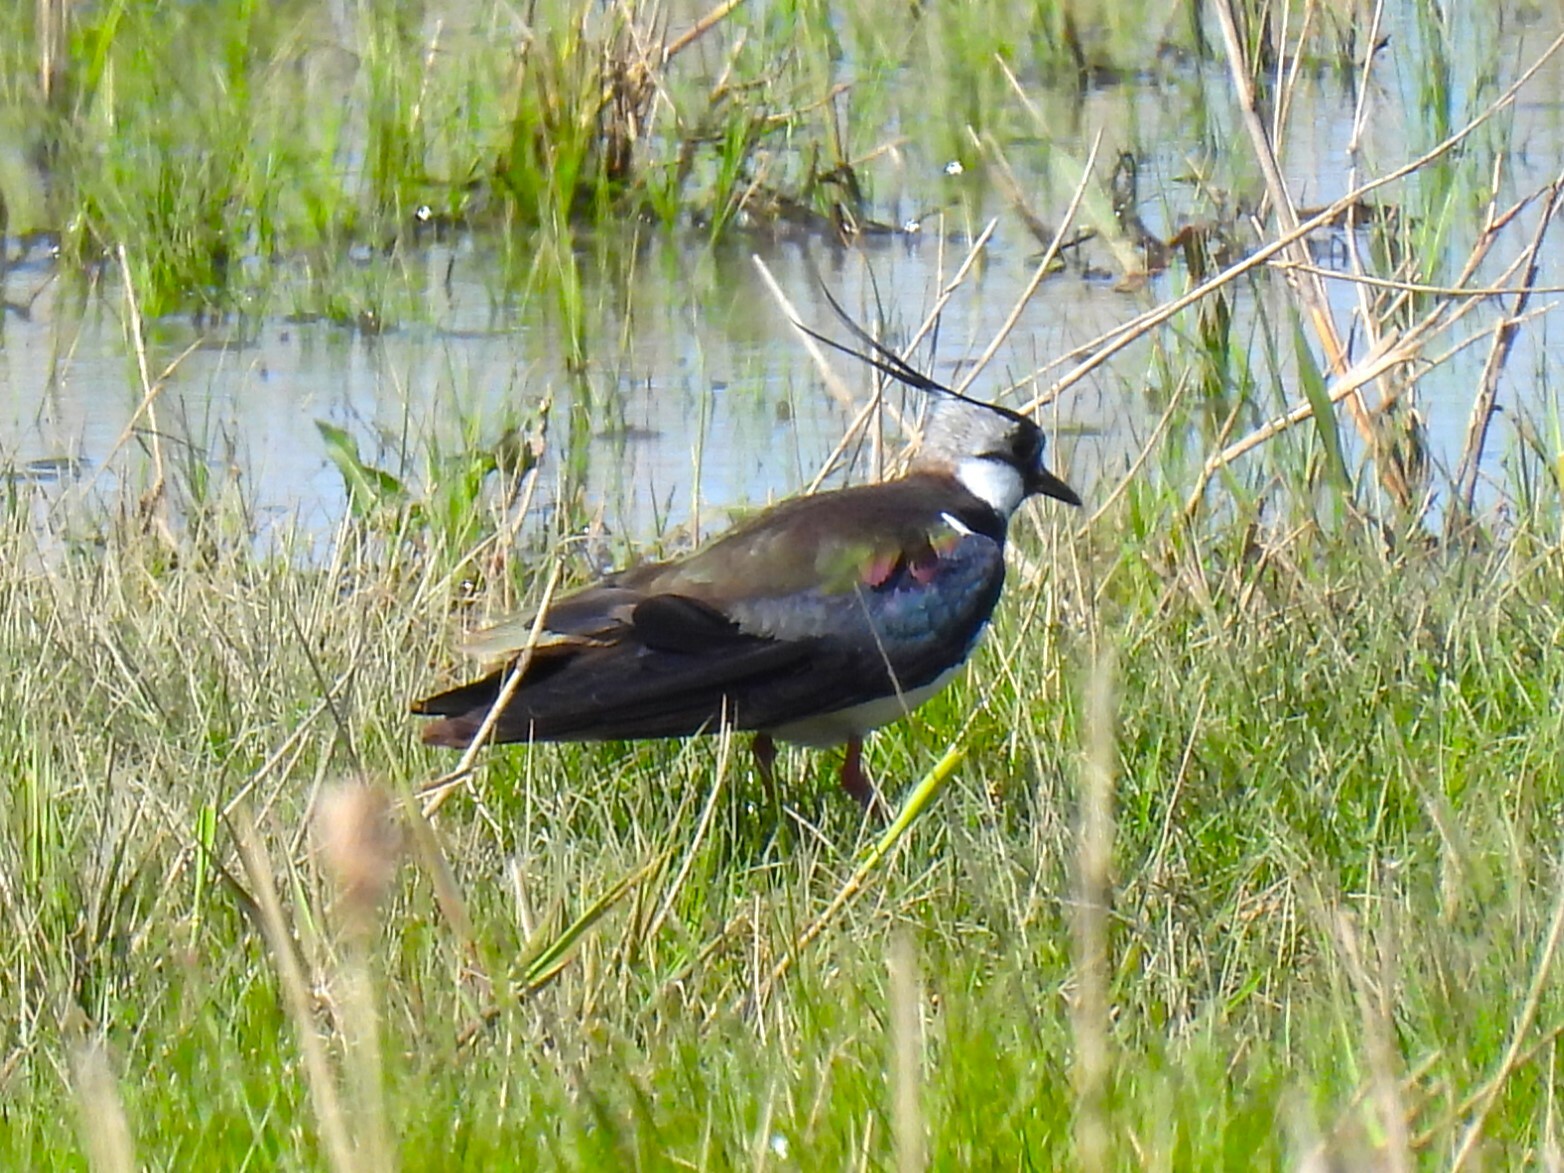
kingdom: Animalia
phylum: Chordata
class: Aves
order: Charadriiformes
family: Charadriidae
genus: Vanellus
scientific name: Vanellus vanellus
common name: Northern lapwing
